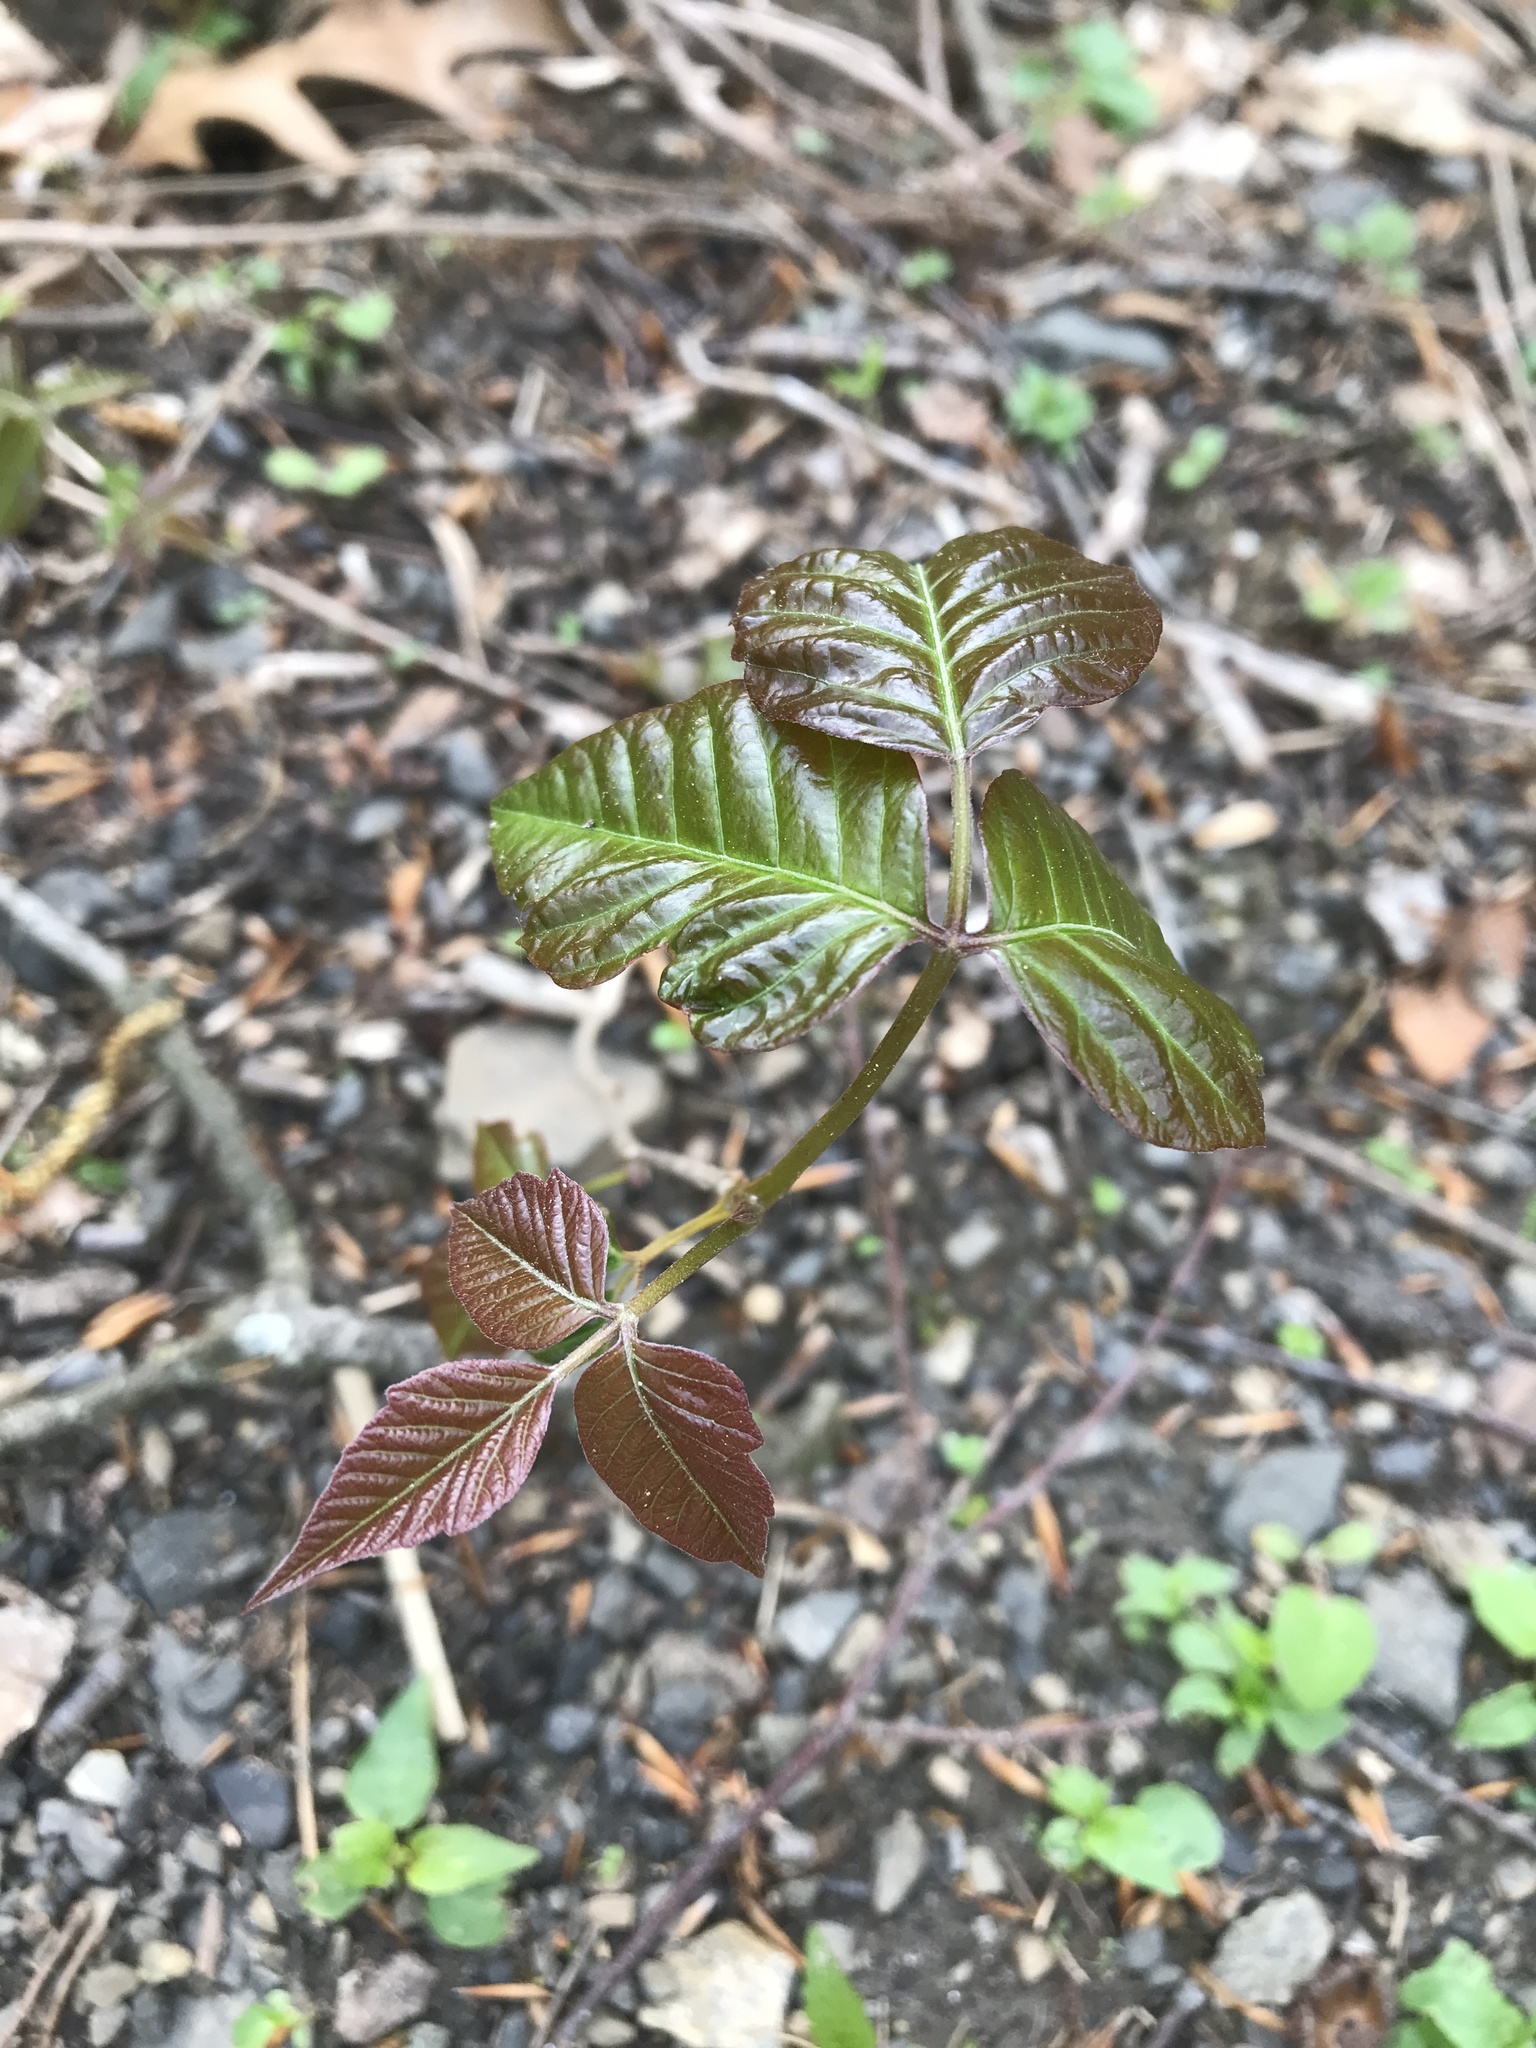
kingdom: Plantae
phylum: Tracheophyta
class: Magnoliopsida
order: Sapindales
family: Anacardiaceae
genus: Toxicodendron
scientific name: Toxicodendron radicans
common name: Poison ivy
